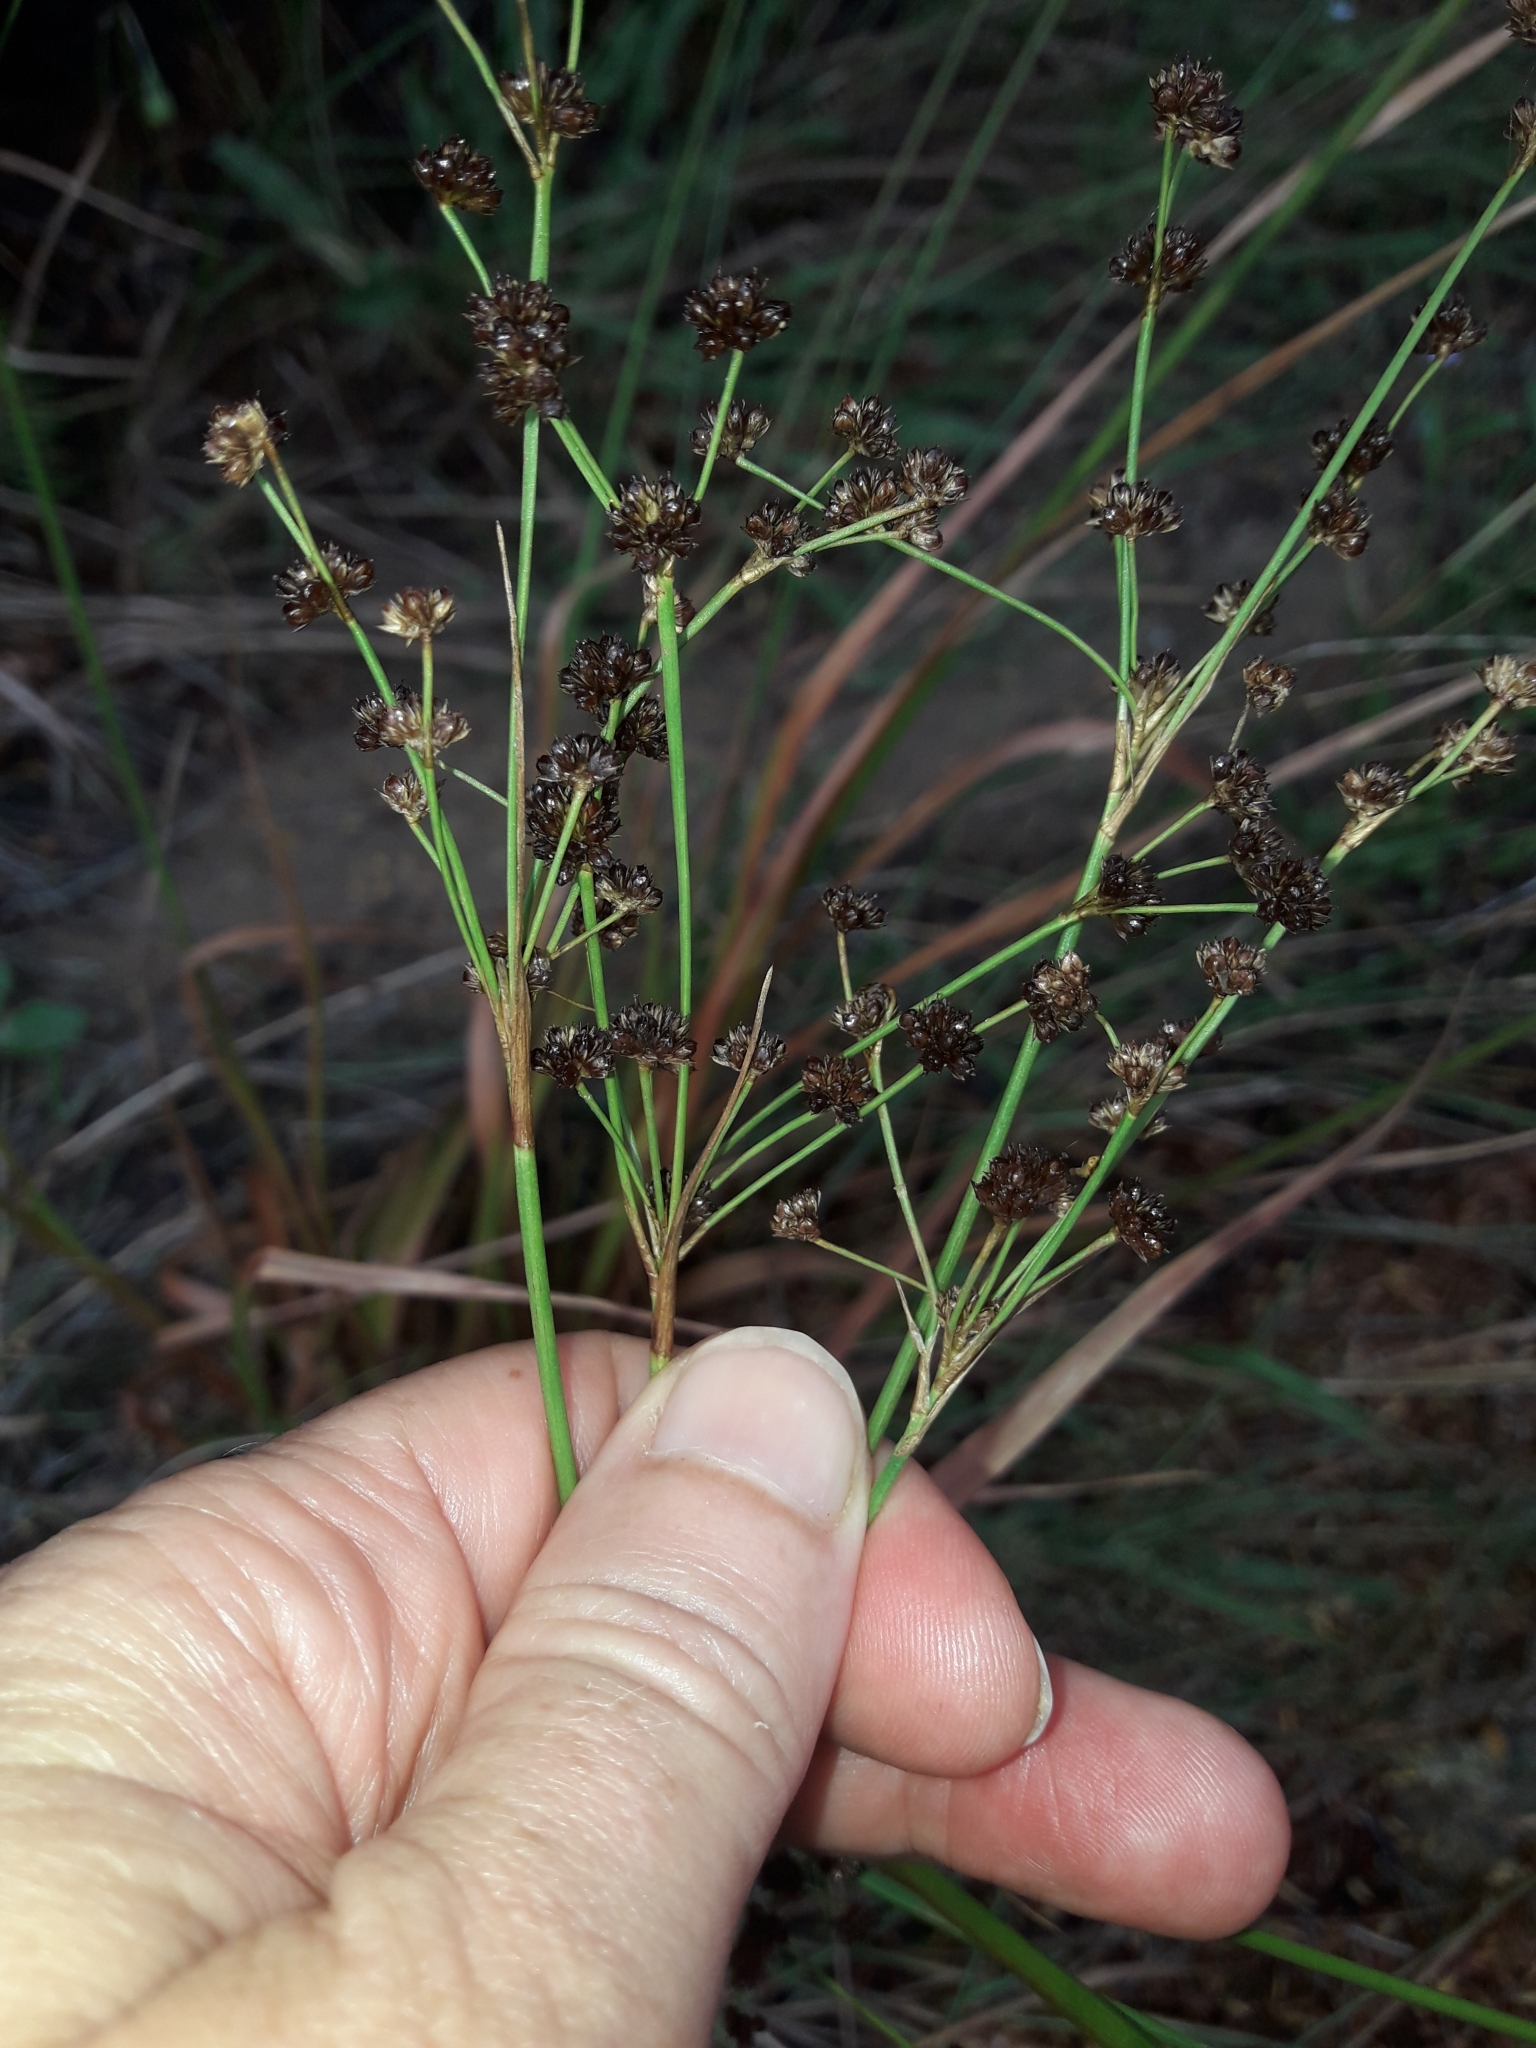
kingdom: Plantae
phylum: Tracheophyta
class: Liliopsida
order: Poales
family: Juncaceae
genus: Juncus
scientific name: Juncus planifolius
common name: Broadleaf rush
